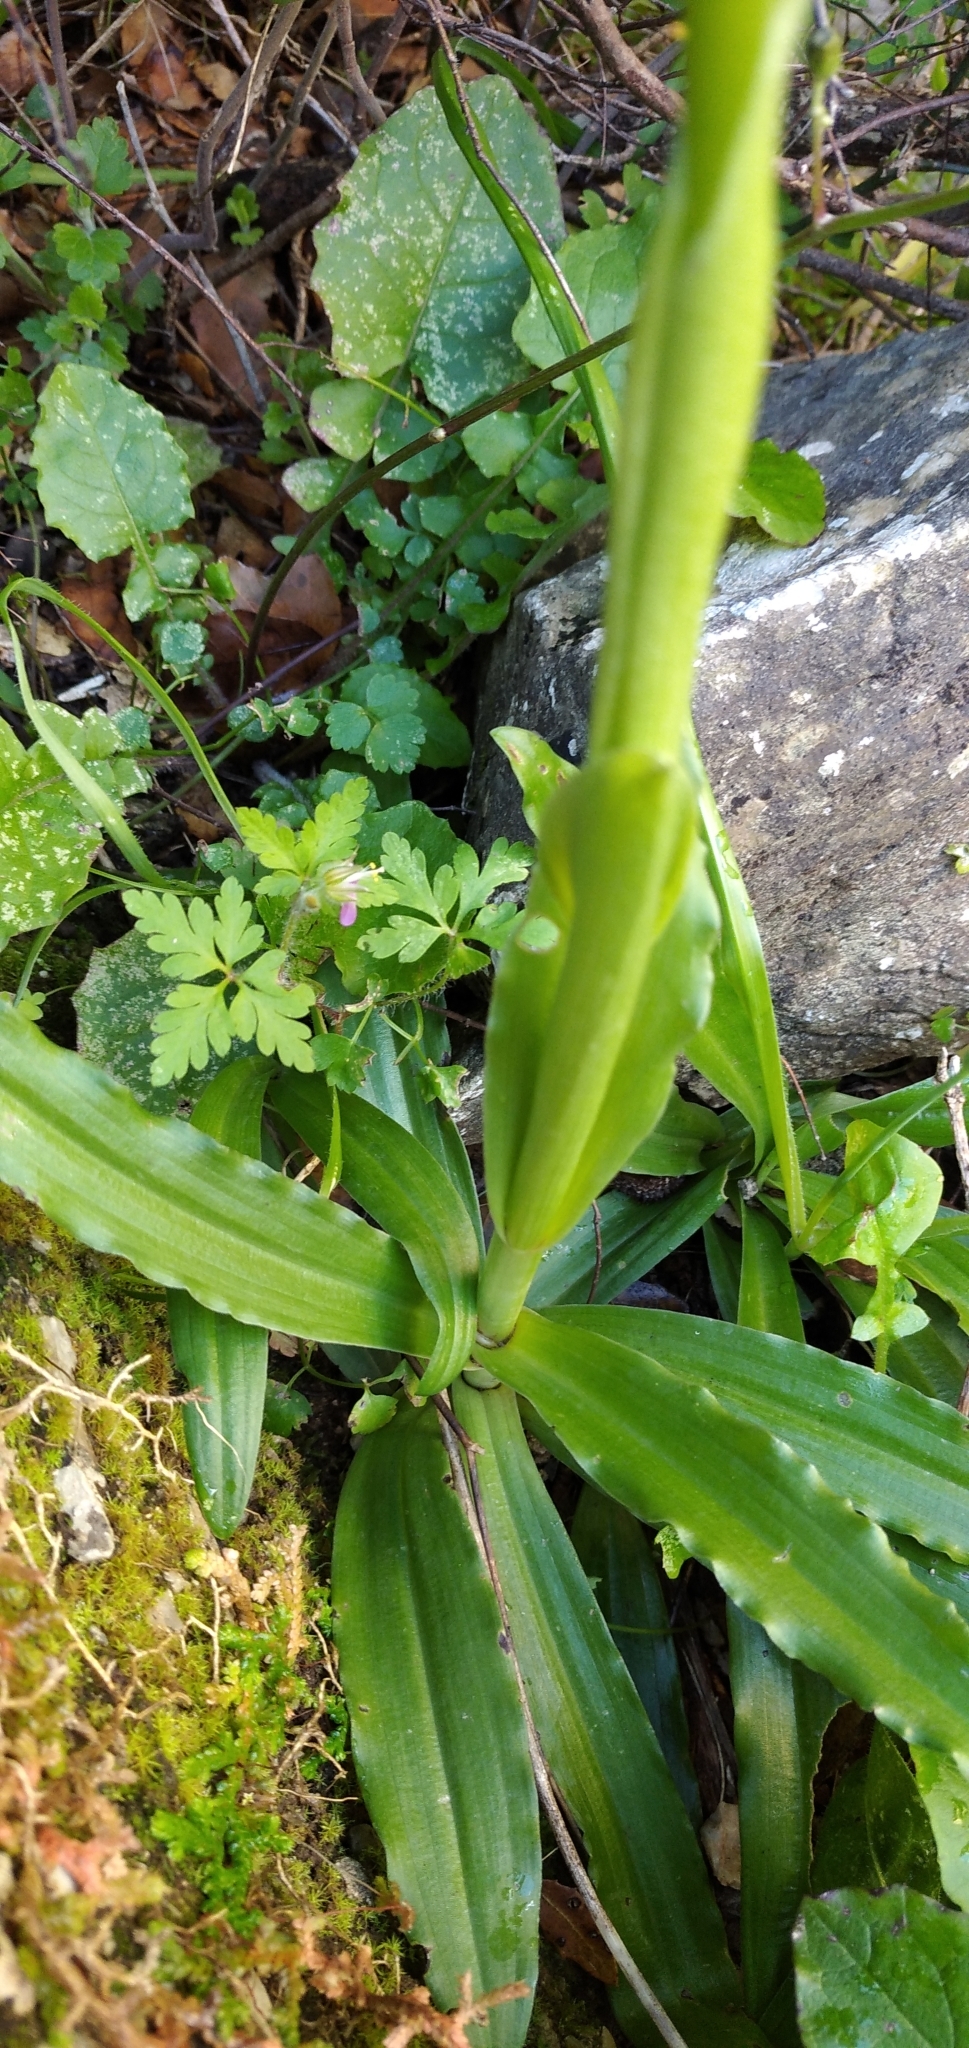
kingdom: Plantae
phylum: Tracheophyta
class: Liliopsida
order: Asparagales
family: Orchidaceae
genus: Orchis
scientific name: Orchis italica
